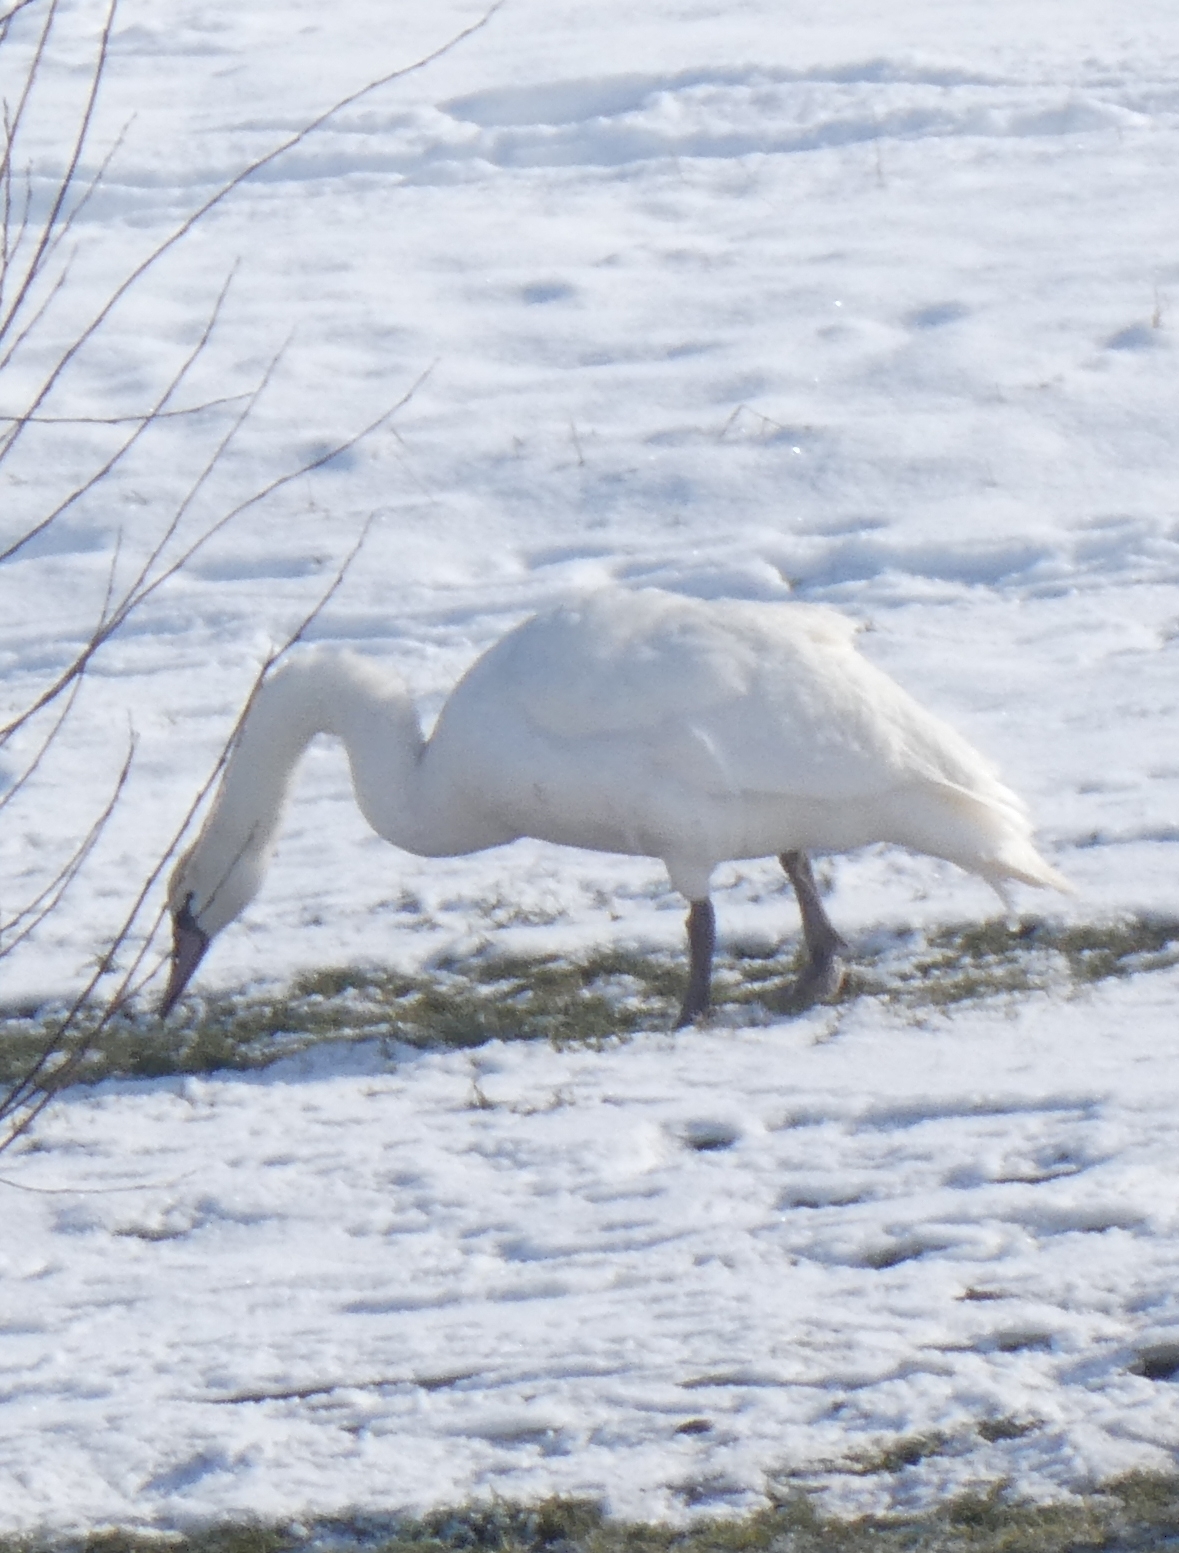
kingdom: Animalia
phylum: Chordata
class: Aves
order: Anseriformes
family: Anatidae
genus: Cygnus
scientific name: Cygnus olor
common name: Mute swan
